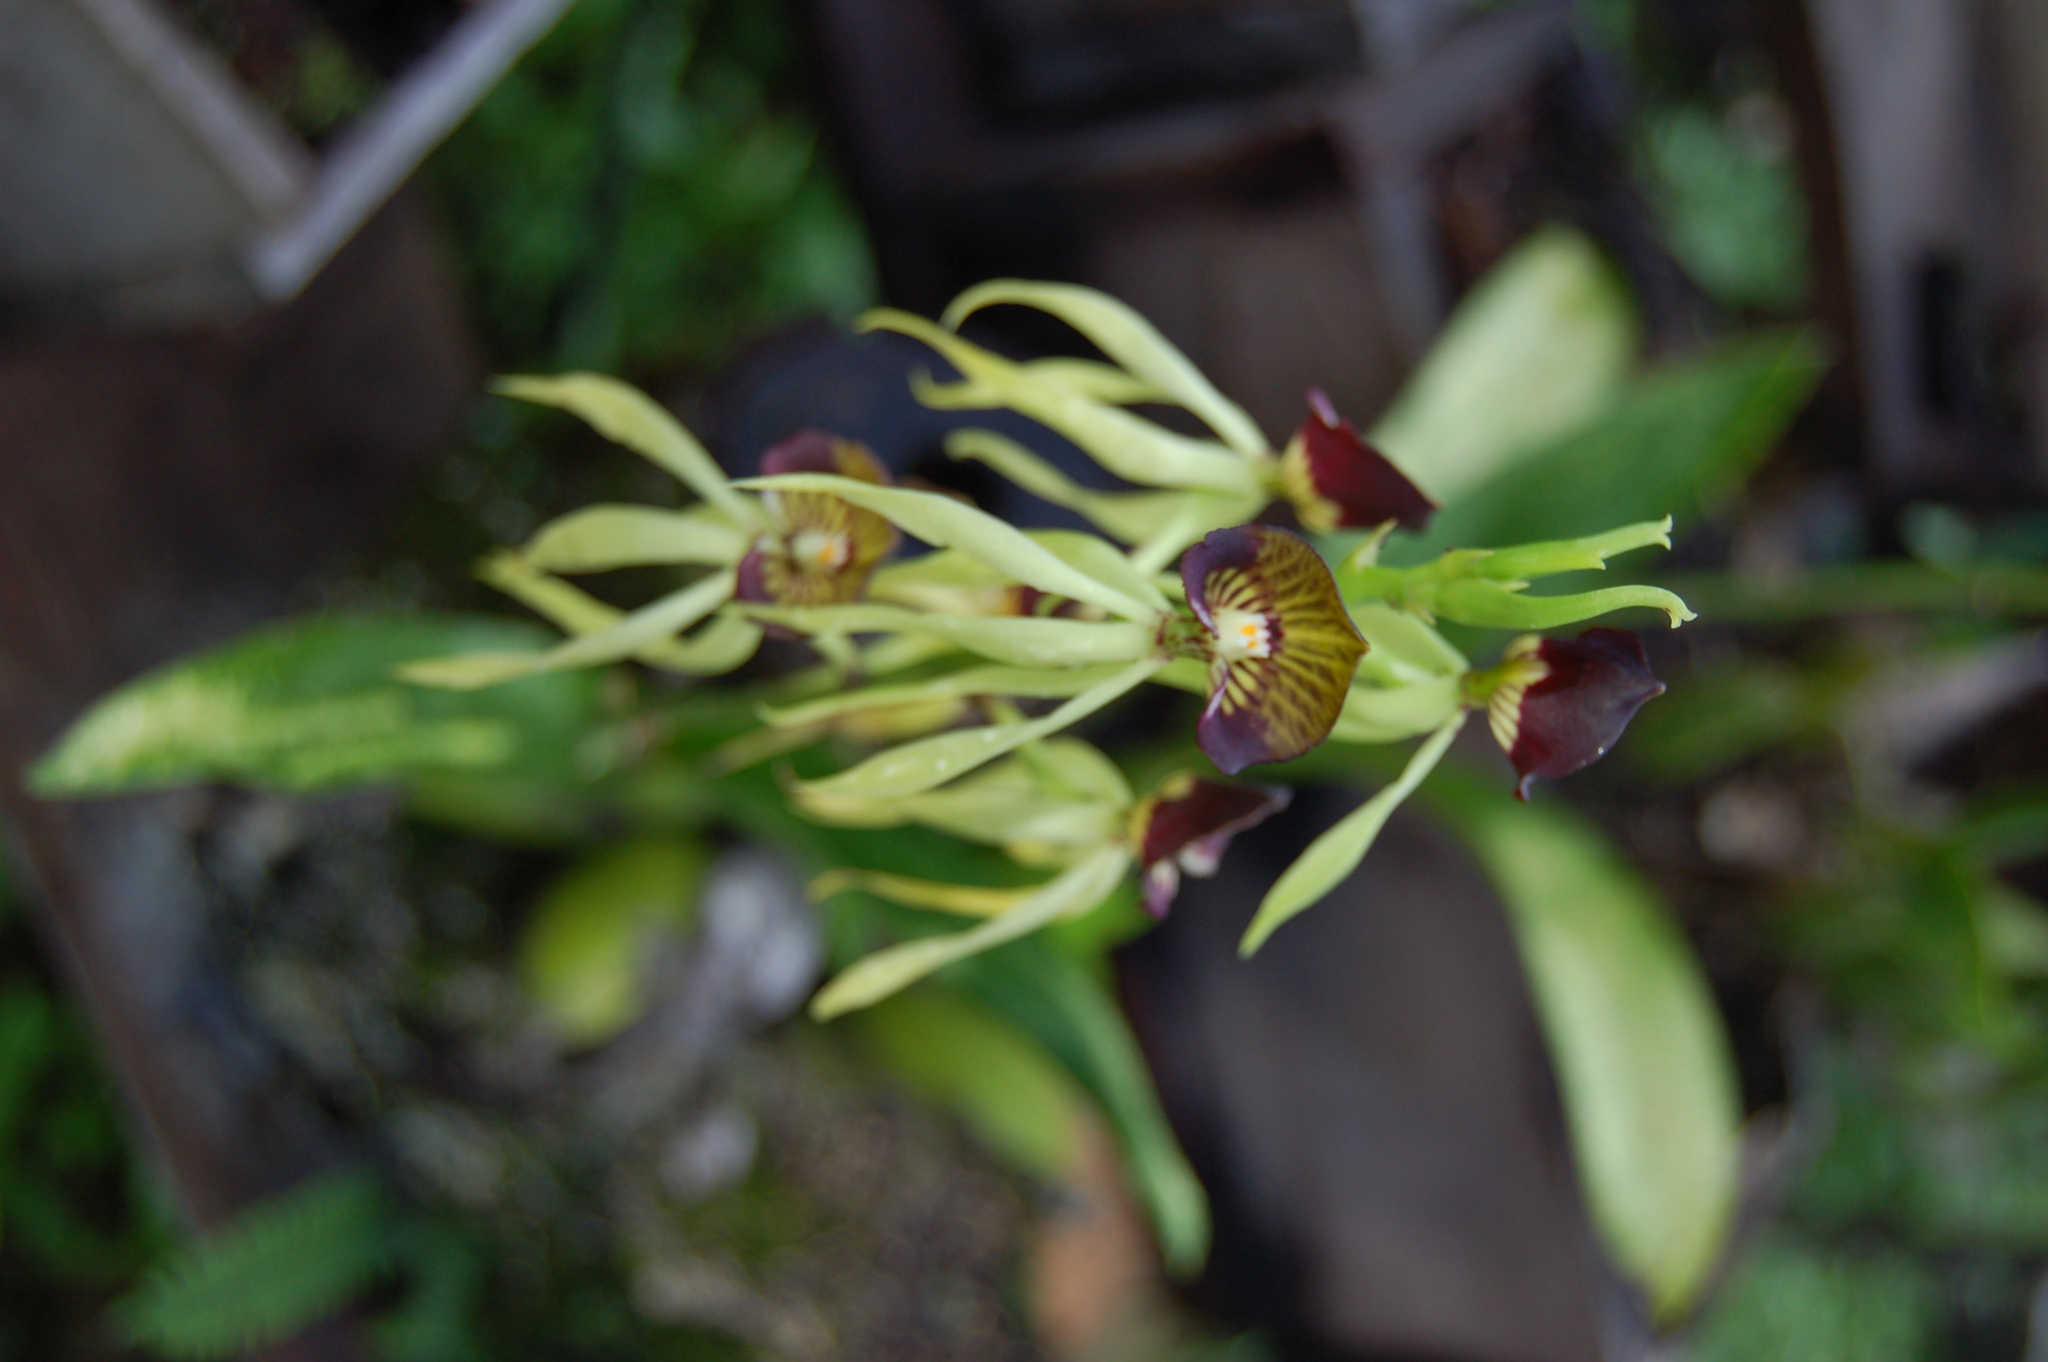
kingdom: Plantae
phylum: Tracheophyta
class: Liliopsida
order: Asparagales
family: Orchidaceae
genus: Prosthechea
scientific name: Prosthechea cochleata
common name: Clamshell orchid
